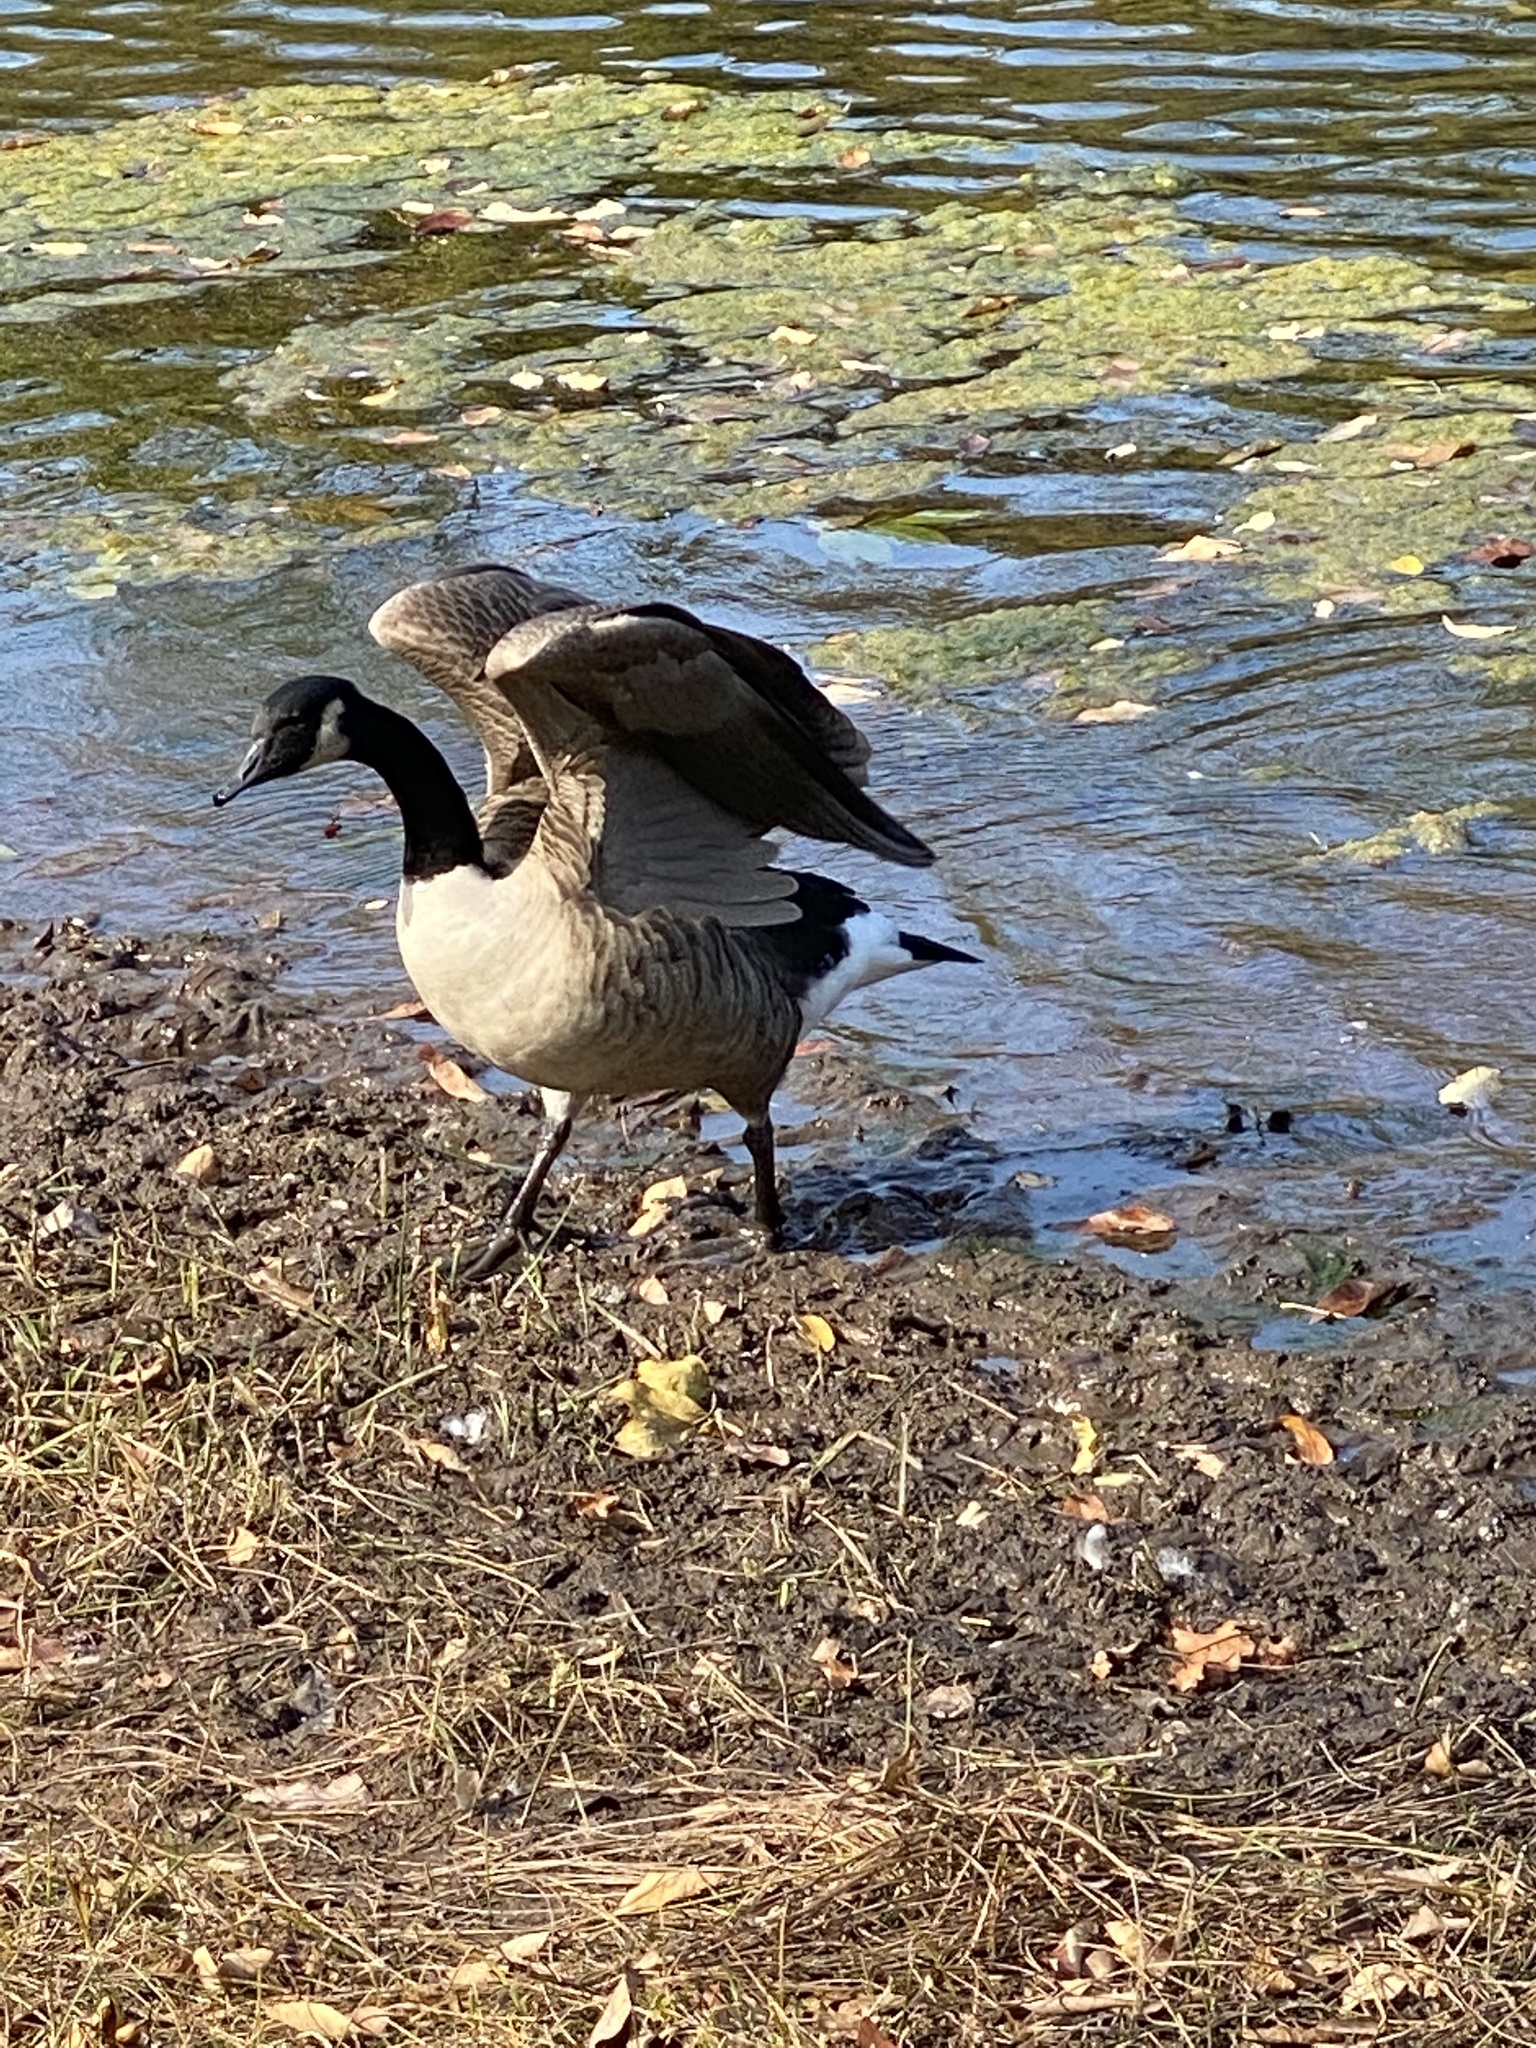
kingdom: Animalia
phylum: Chordata
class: Aves
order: Anseriformes
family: Anatidae
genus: Branta
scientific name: Branta canadensis
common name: Canada goose
